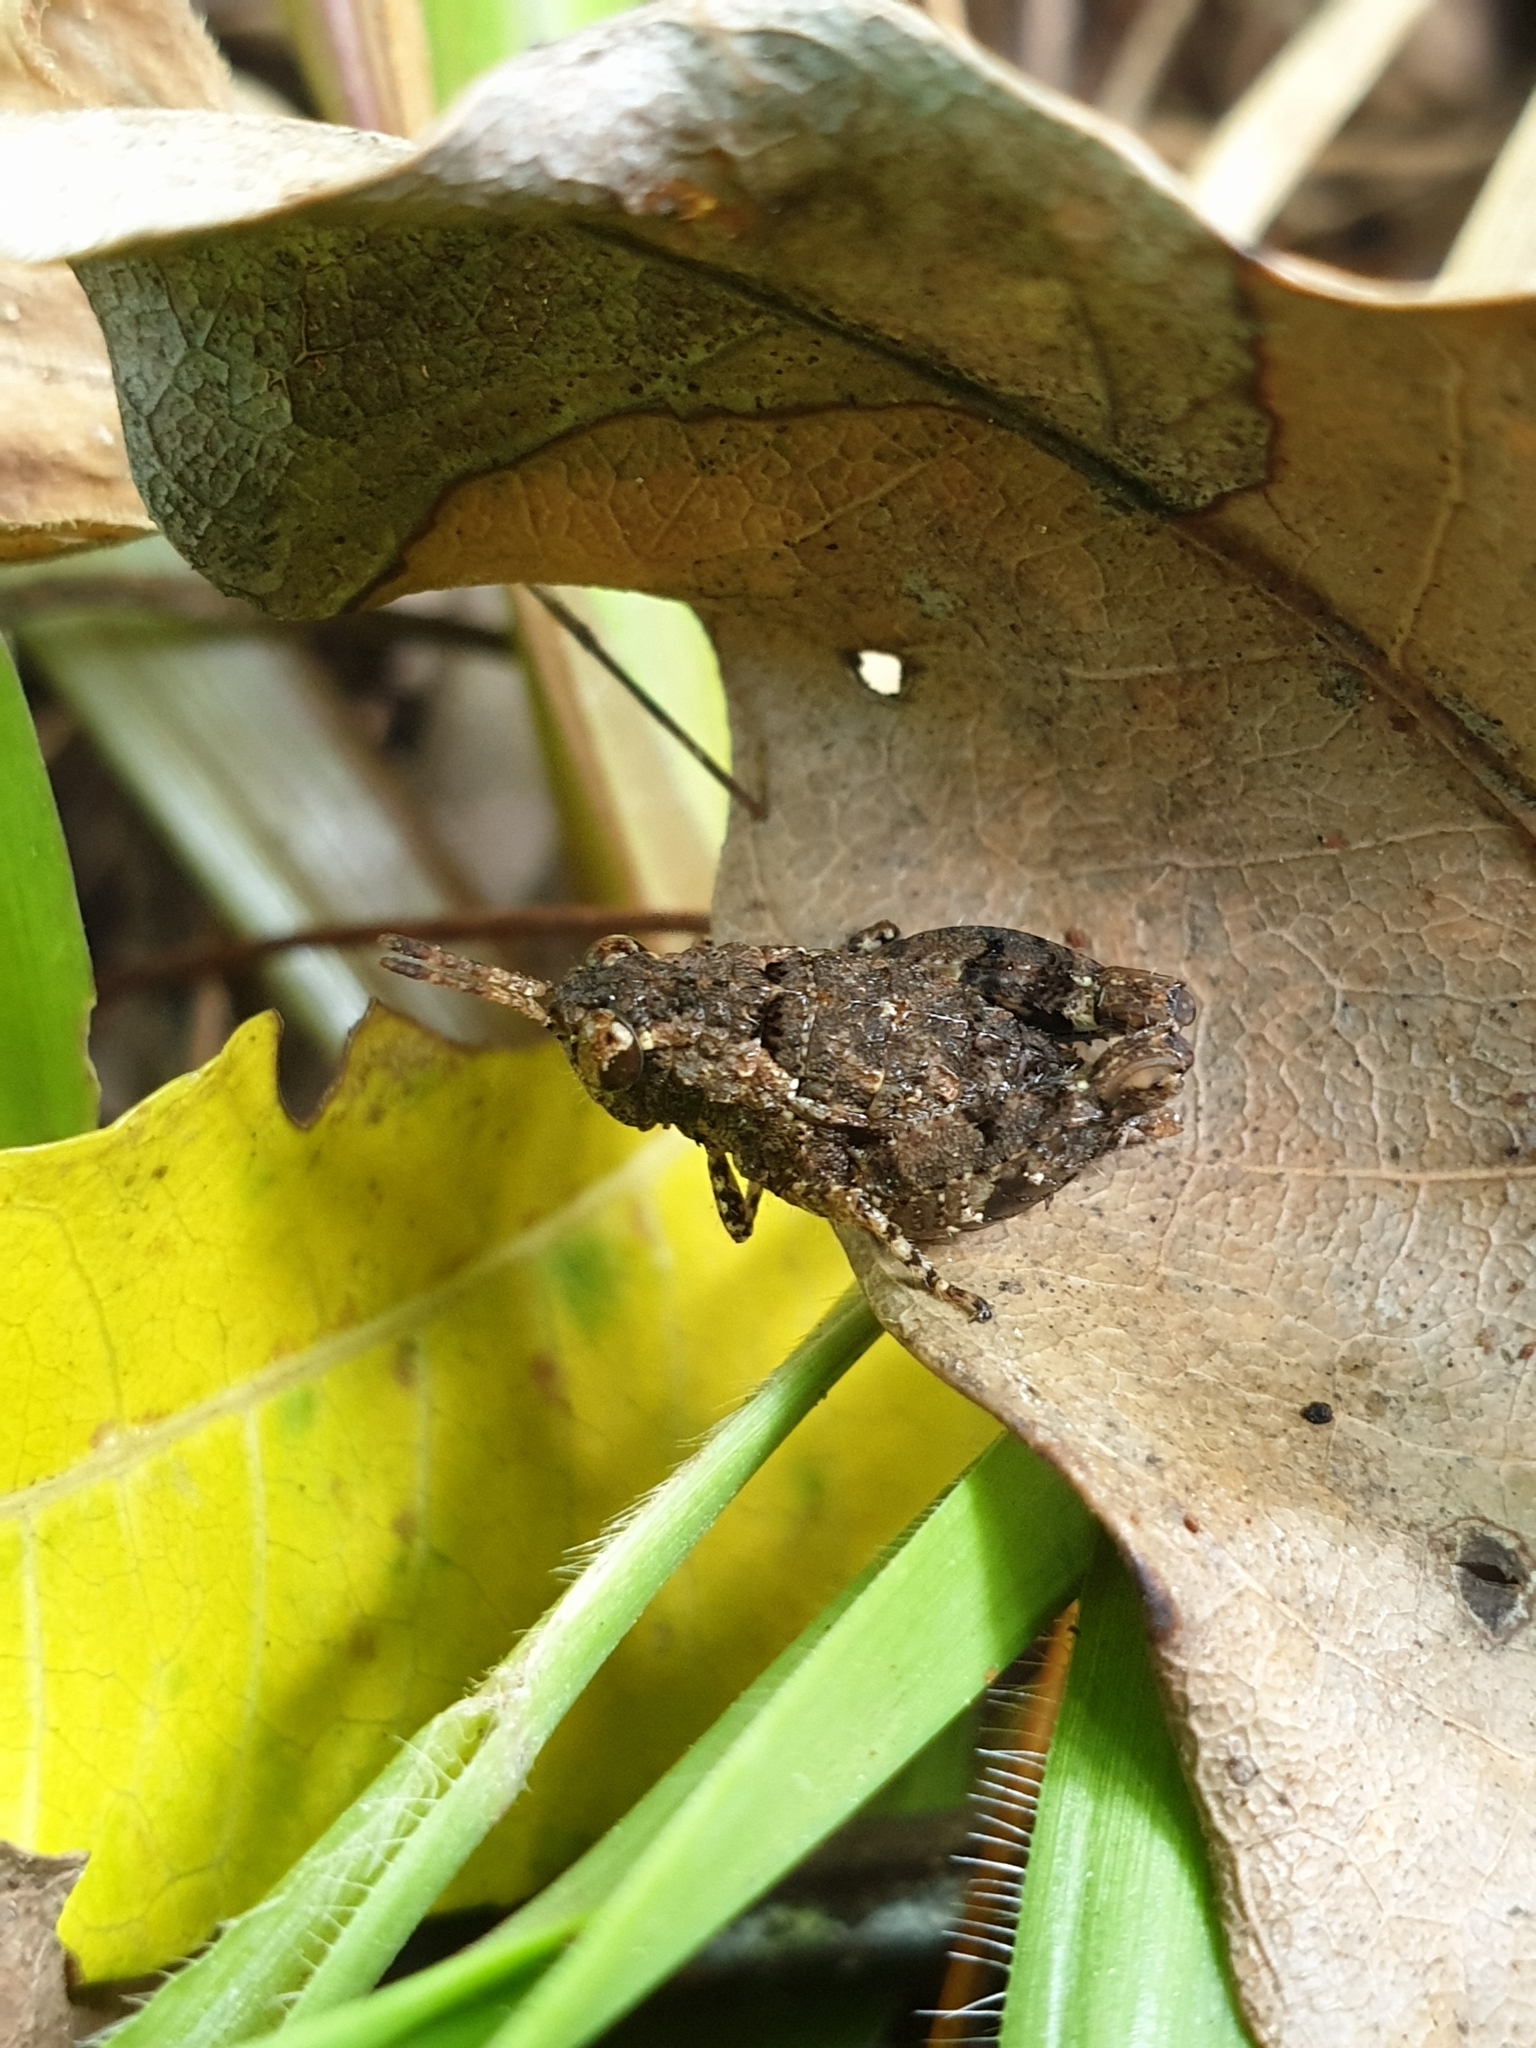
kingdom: Animalia
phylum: Arthropoda
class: Insecta
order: Orthoptera
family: Acrididae
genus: Dubitacris
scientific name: Dubitacris robustus
